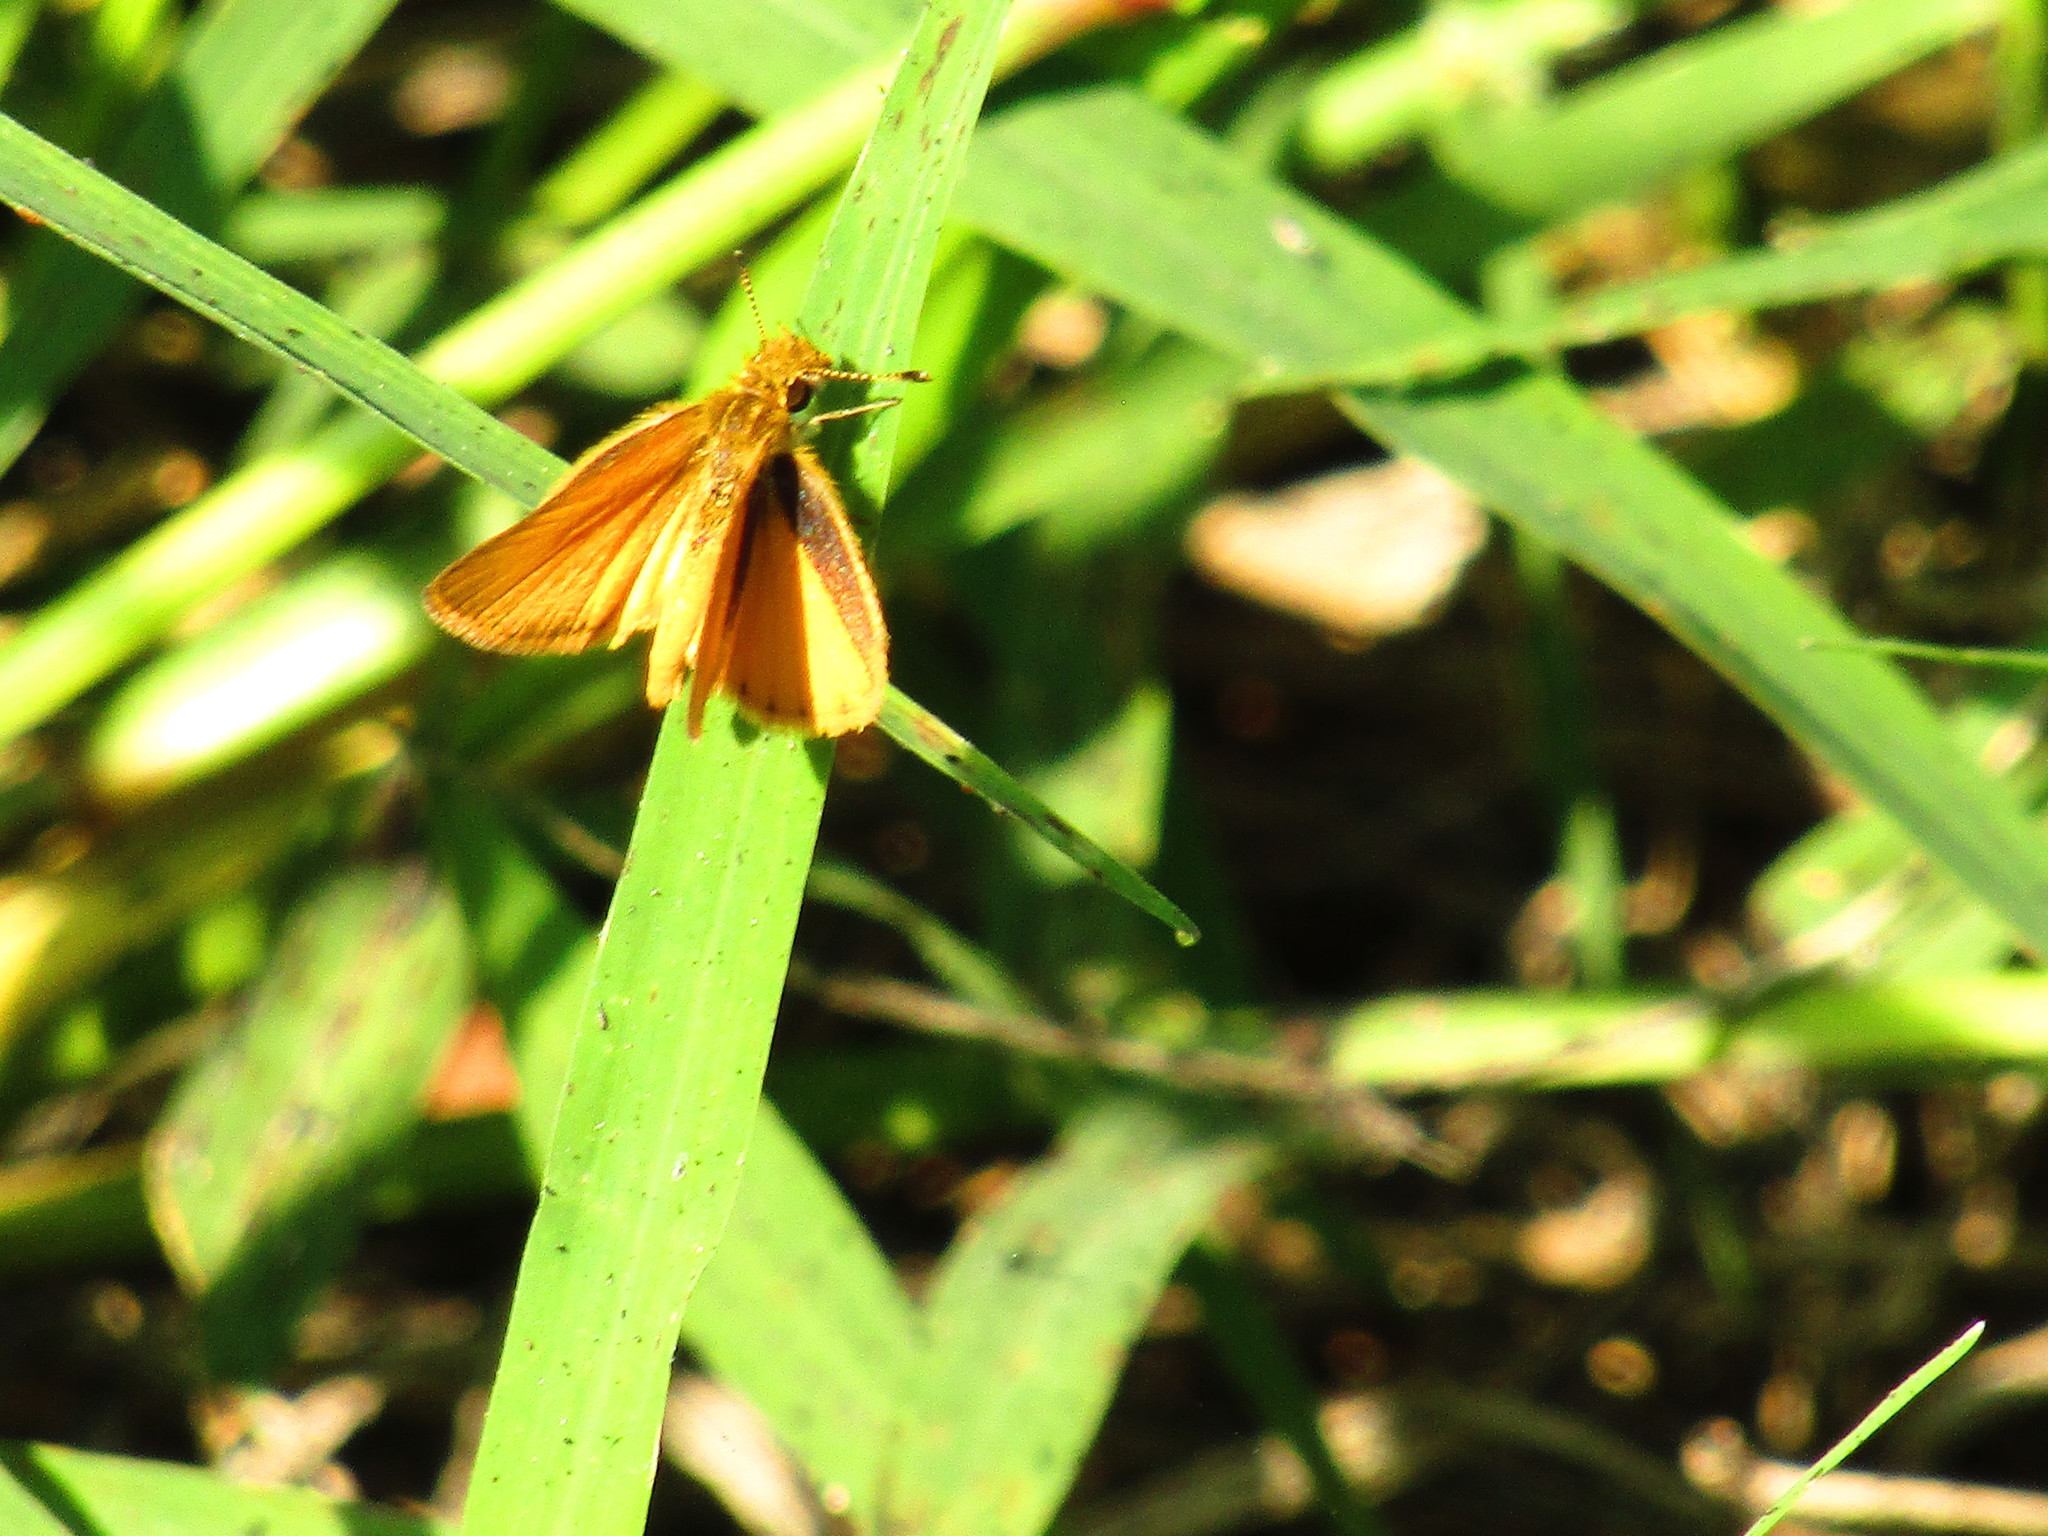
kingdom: Animalia
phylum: Arthropoda
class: Insecta
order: Lepidoptera
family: Hesperiidae
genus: Ancyloxypha
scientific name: Ancyloxypha arene
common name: Tropical least skipper
